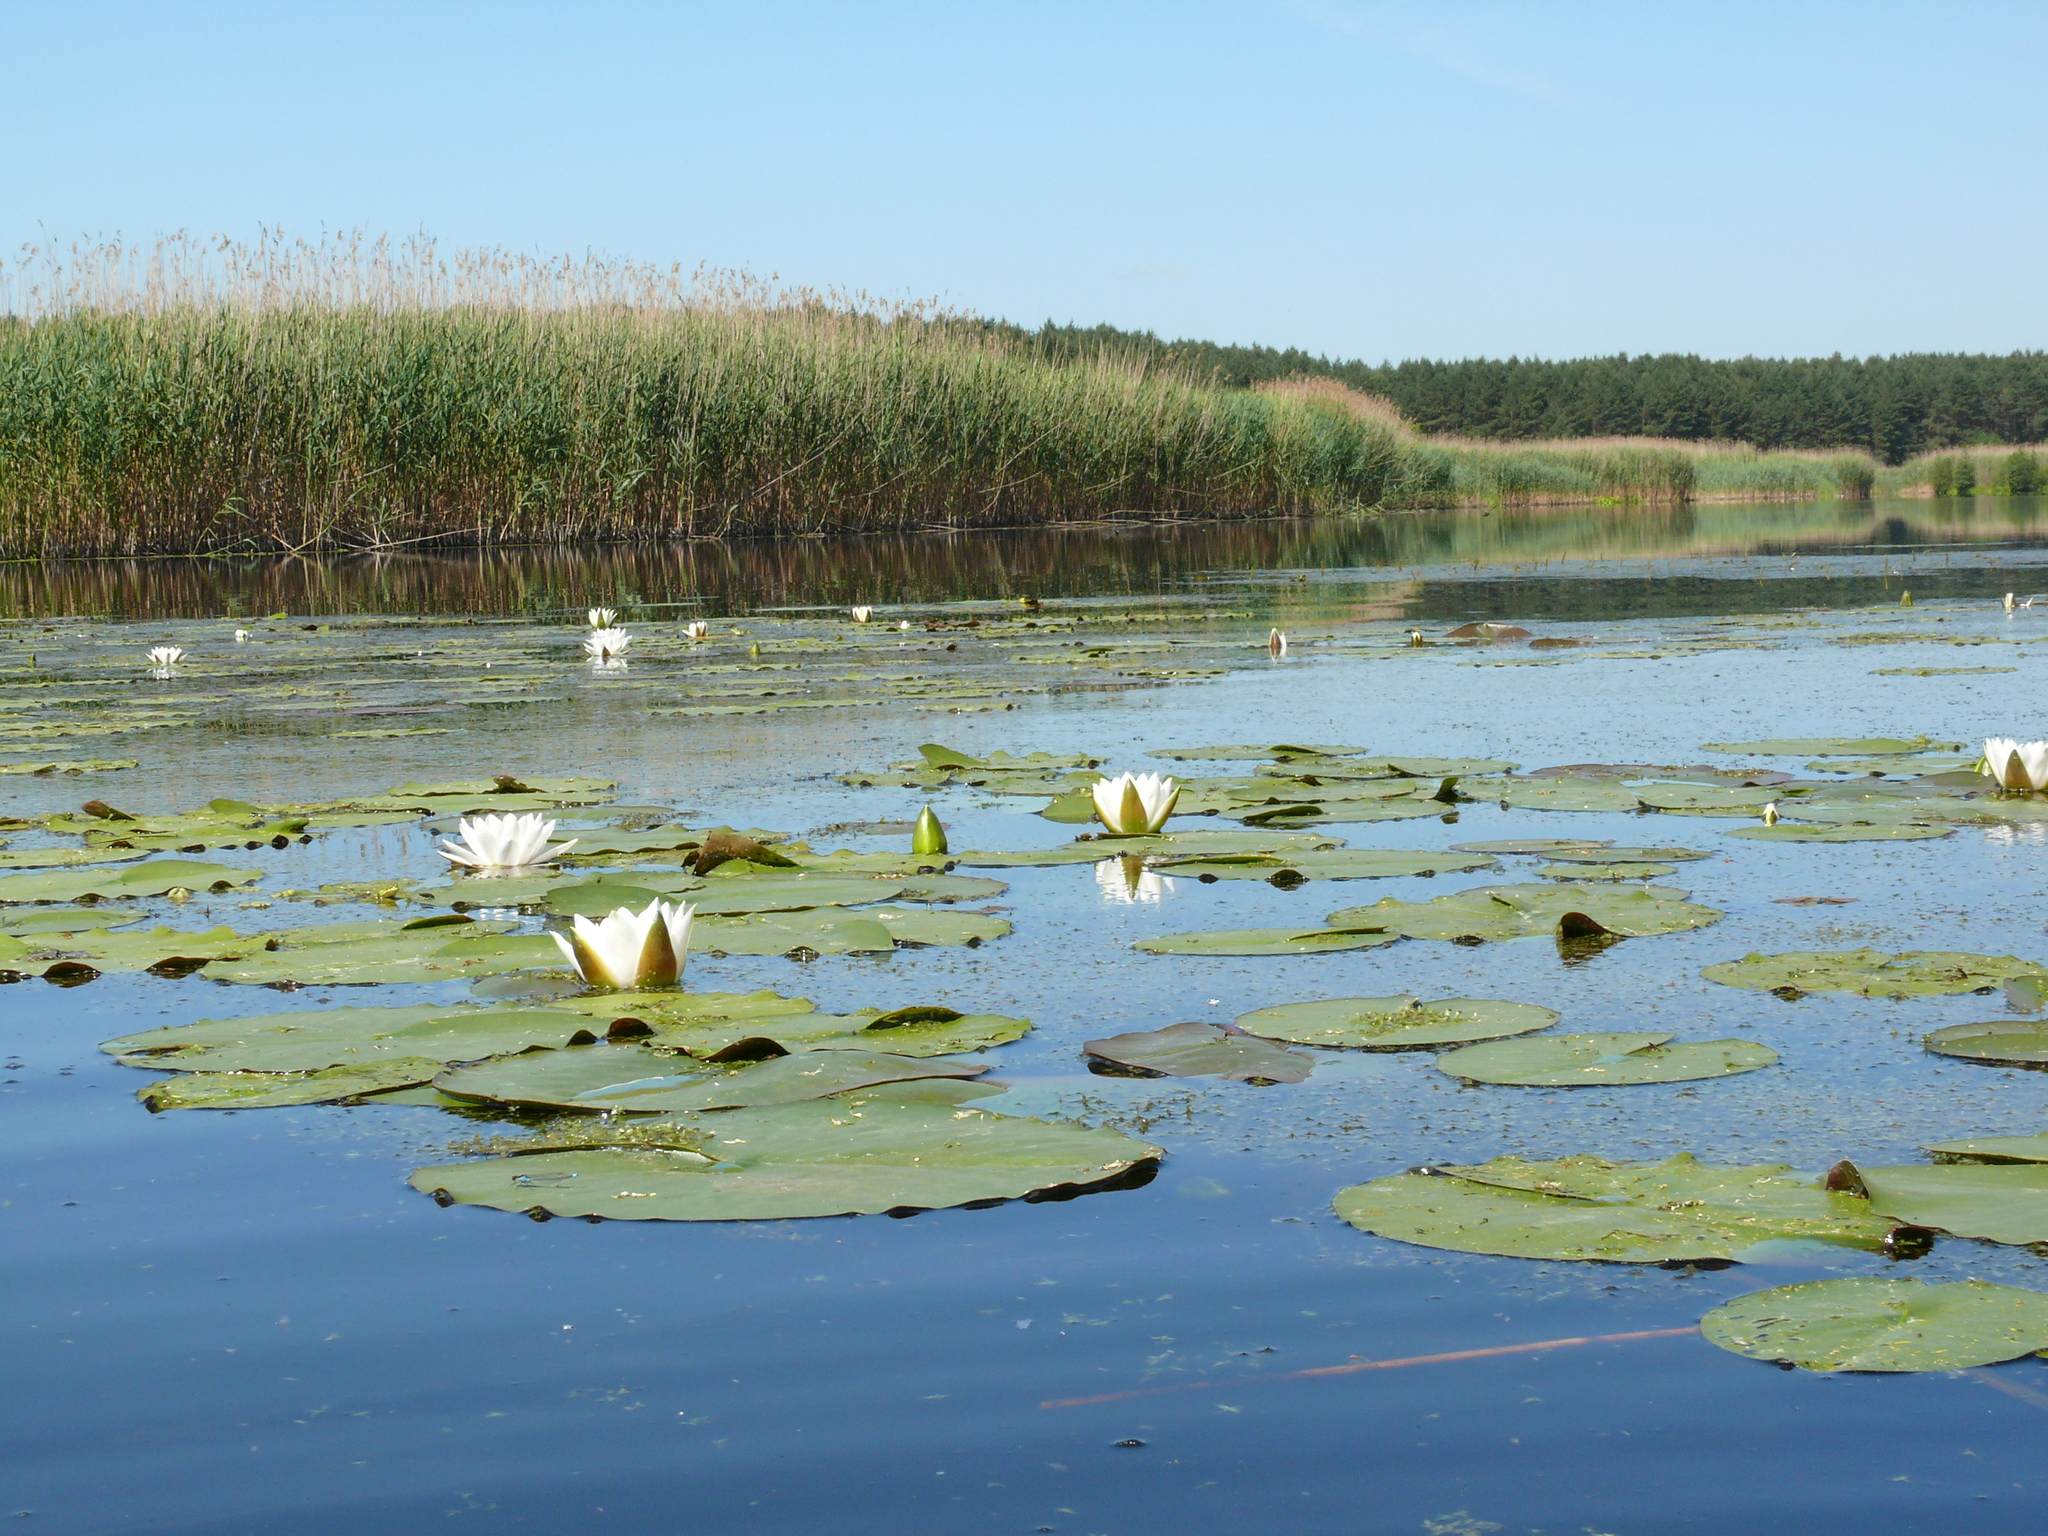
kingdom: Plantae
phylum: Tracheophyta
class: Magnoliopsida
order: Nymphaeales
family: Nymphaeaceae
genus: Nymphaea
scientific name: Nymphaea alba
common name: White water-lily
